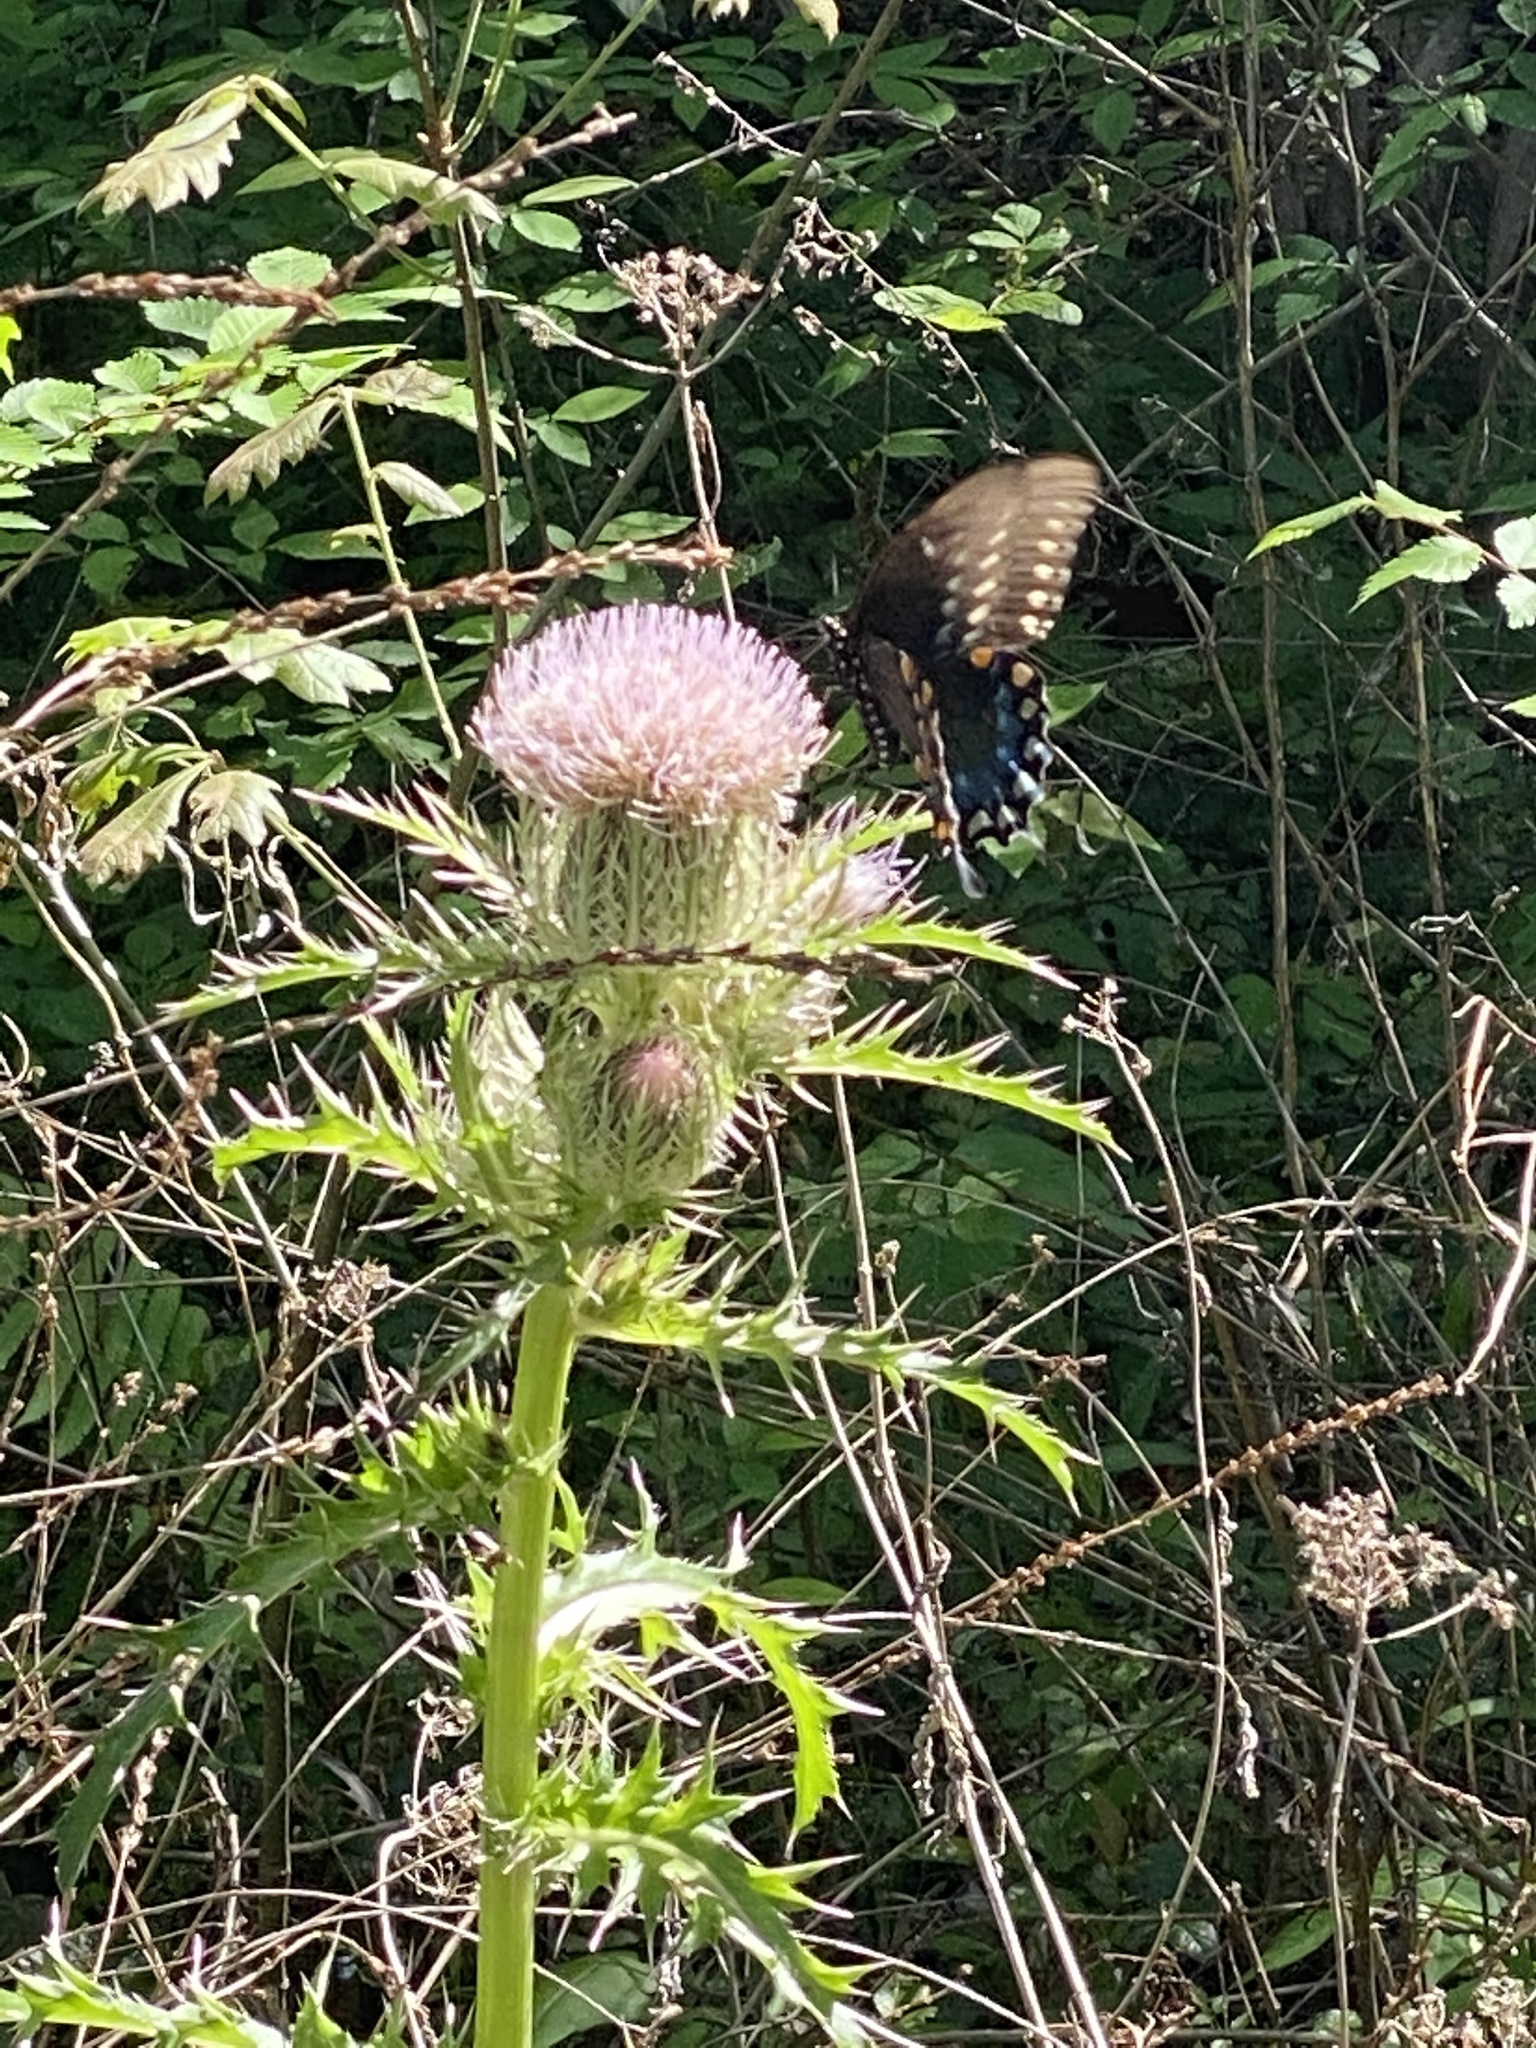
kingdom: Animalia
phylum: Arthropoda
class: Insecta
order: Lepidoptera
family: Papilionidae
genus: Papilio
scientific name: Papilio troilus
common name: Spicebush swallowtail
